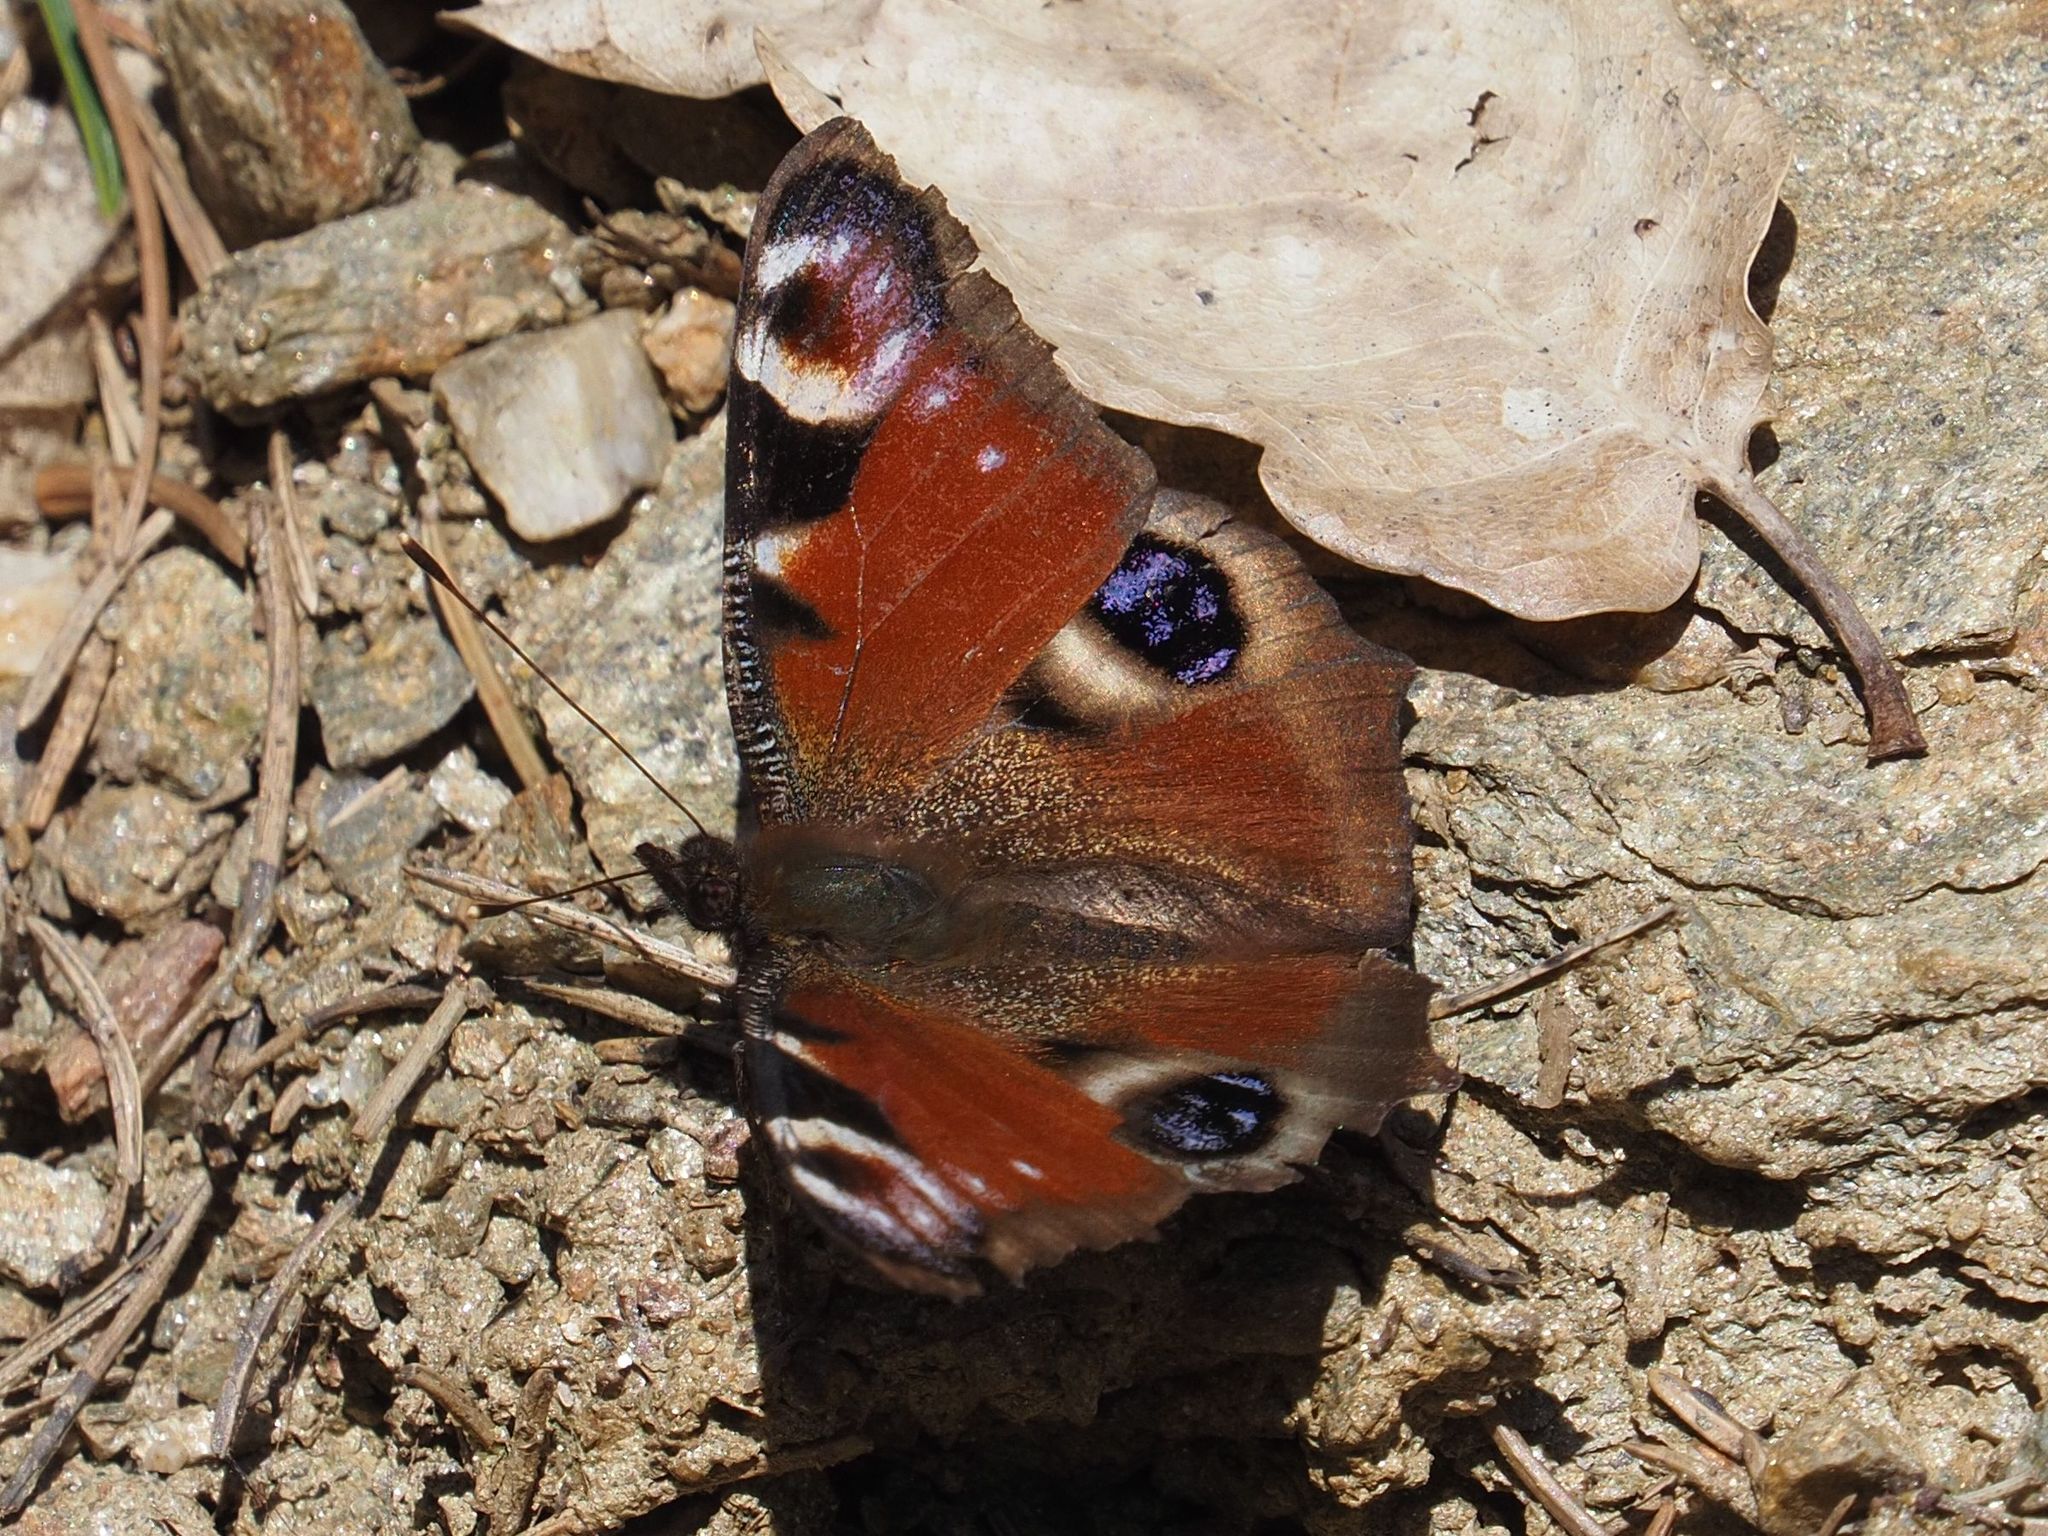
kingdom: Animalia
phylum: Arthropoda
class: Insecta
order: Lepidoptera
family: Nymphalidae
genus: Aglais
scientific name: Aglais io
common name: Peacock
